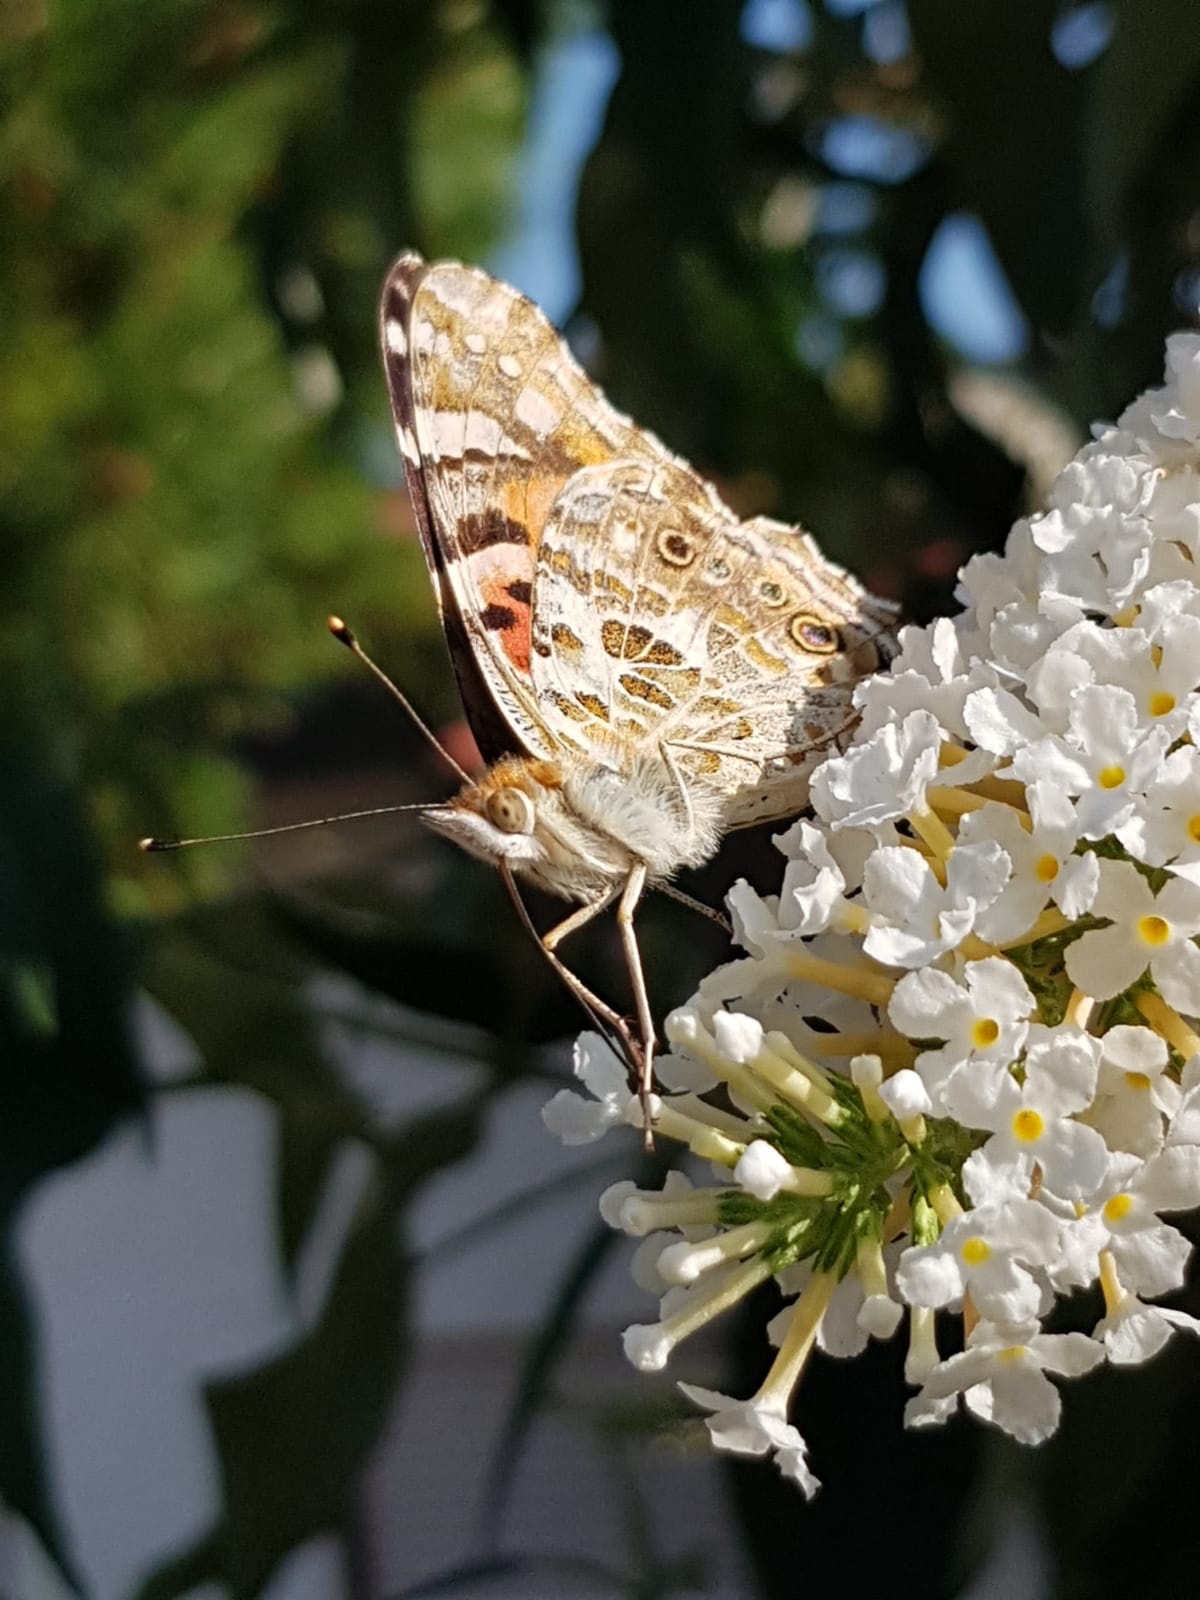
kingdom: Animalia
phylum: Arthropoda
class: Insecta
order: Lepidoptera
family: Nymphalidae
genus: Vanessa
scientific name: Vanessa cardui
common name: Painted lady
